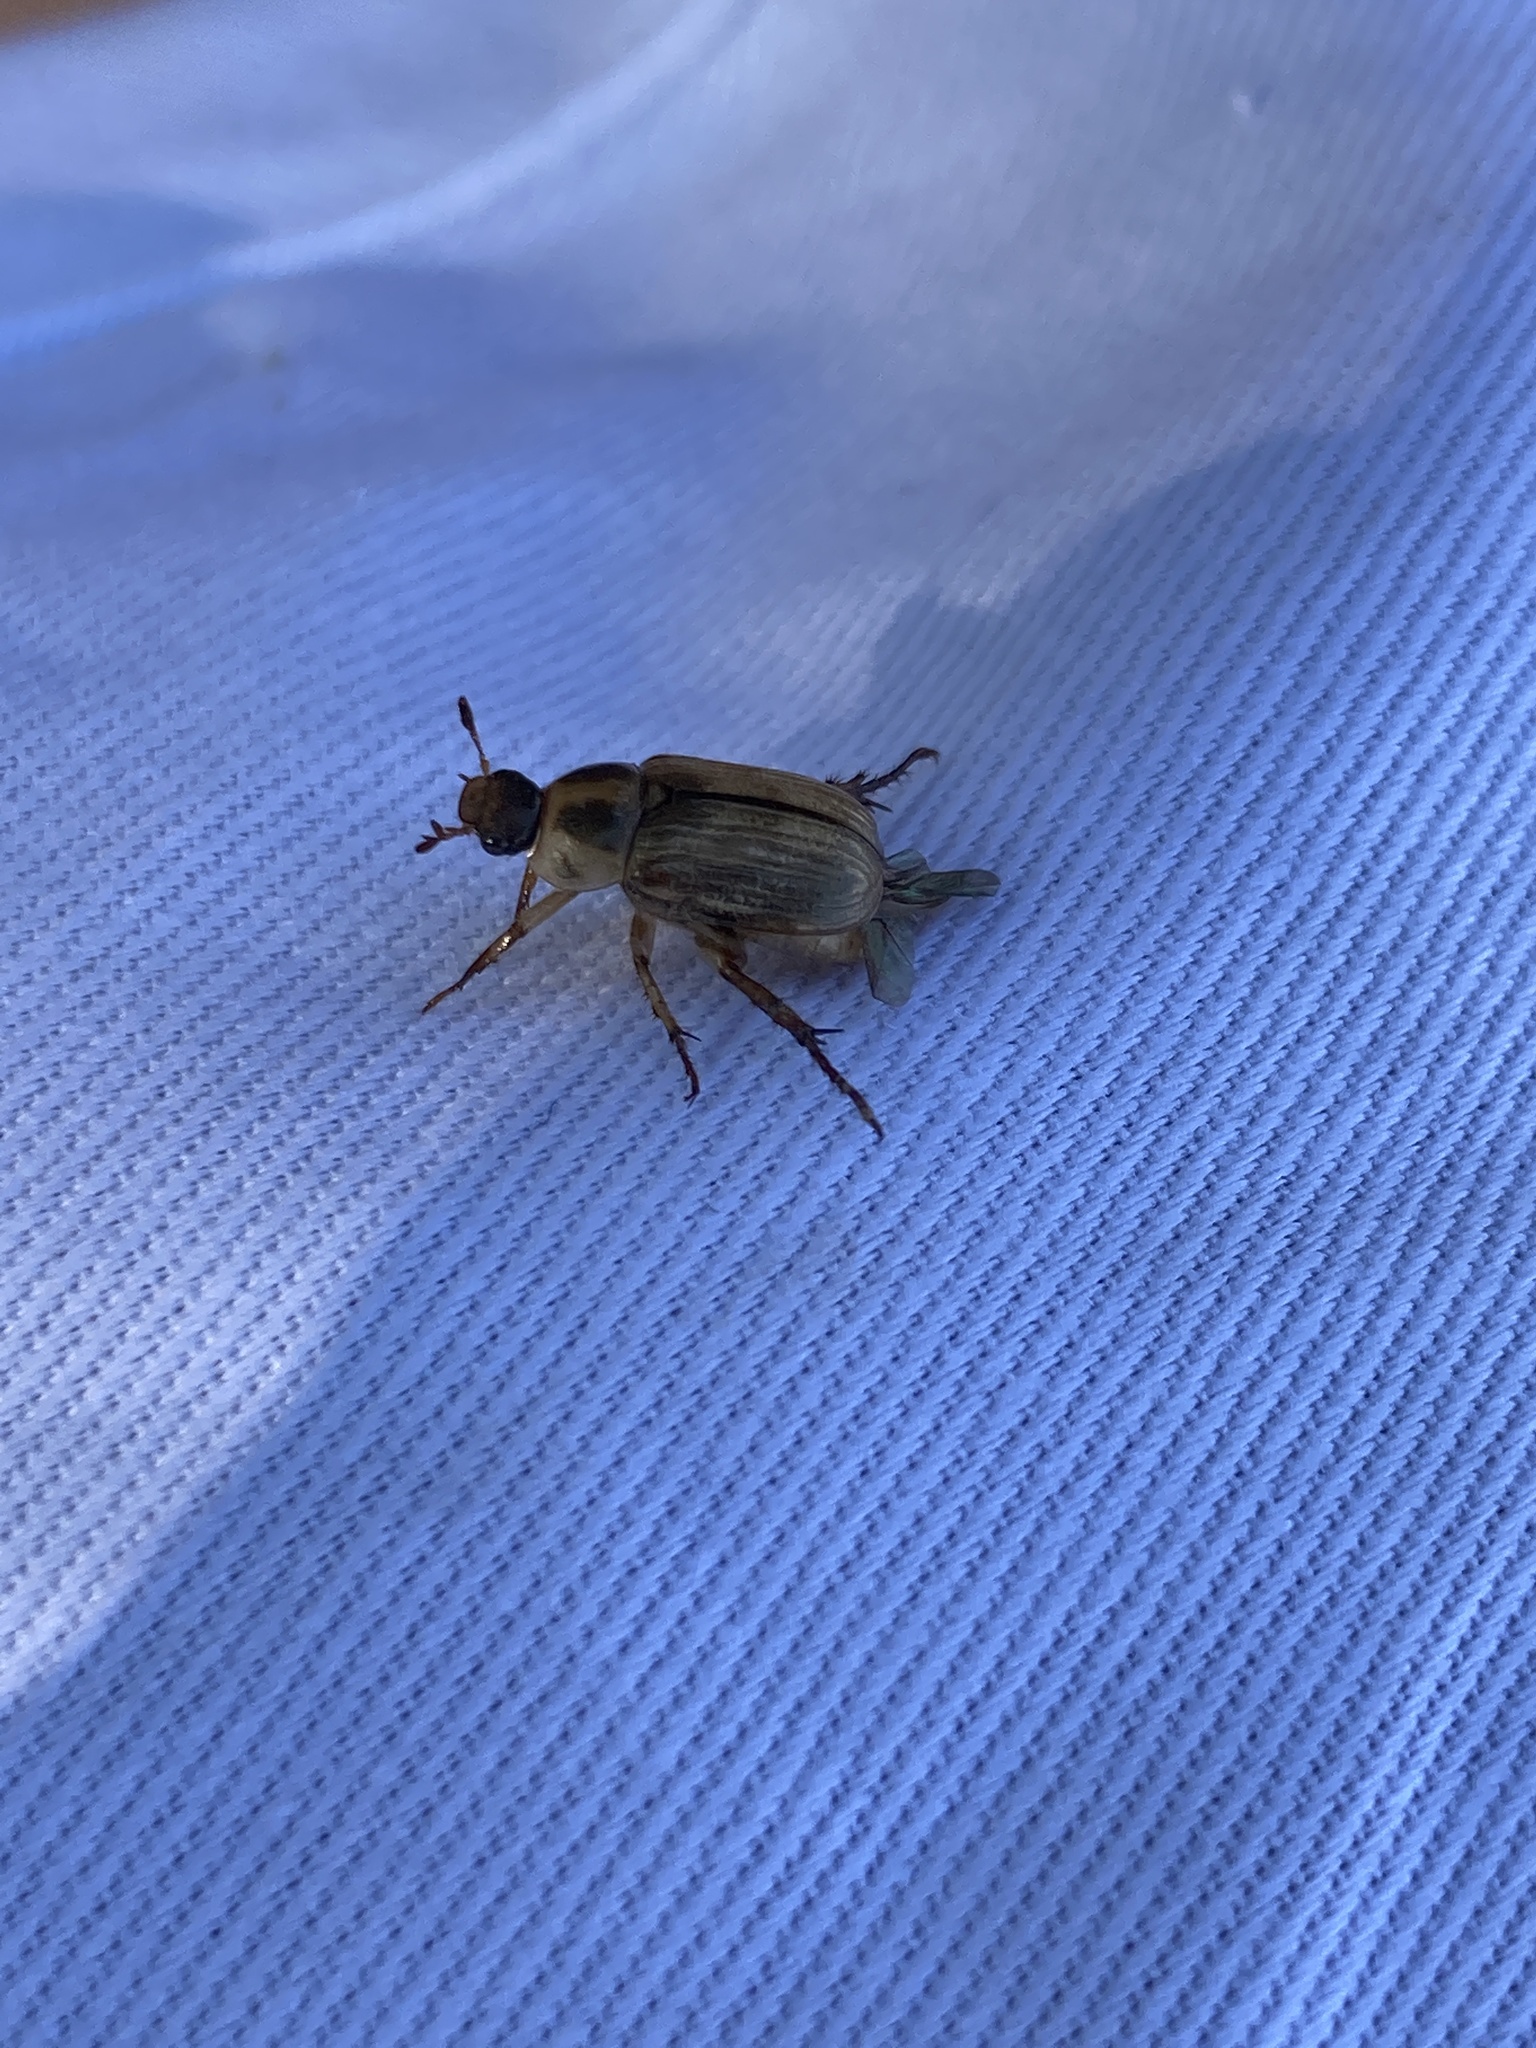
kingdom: Animalia
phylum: Arthropoda
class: Insecta
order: Coleoptera
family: Scarabaeidae
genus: Exomala
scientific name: Exomala orientalis
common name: Oriental beetle
